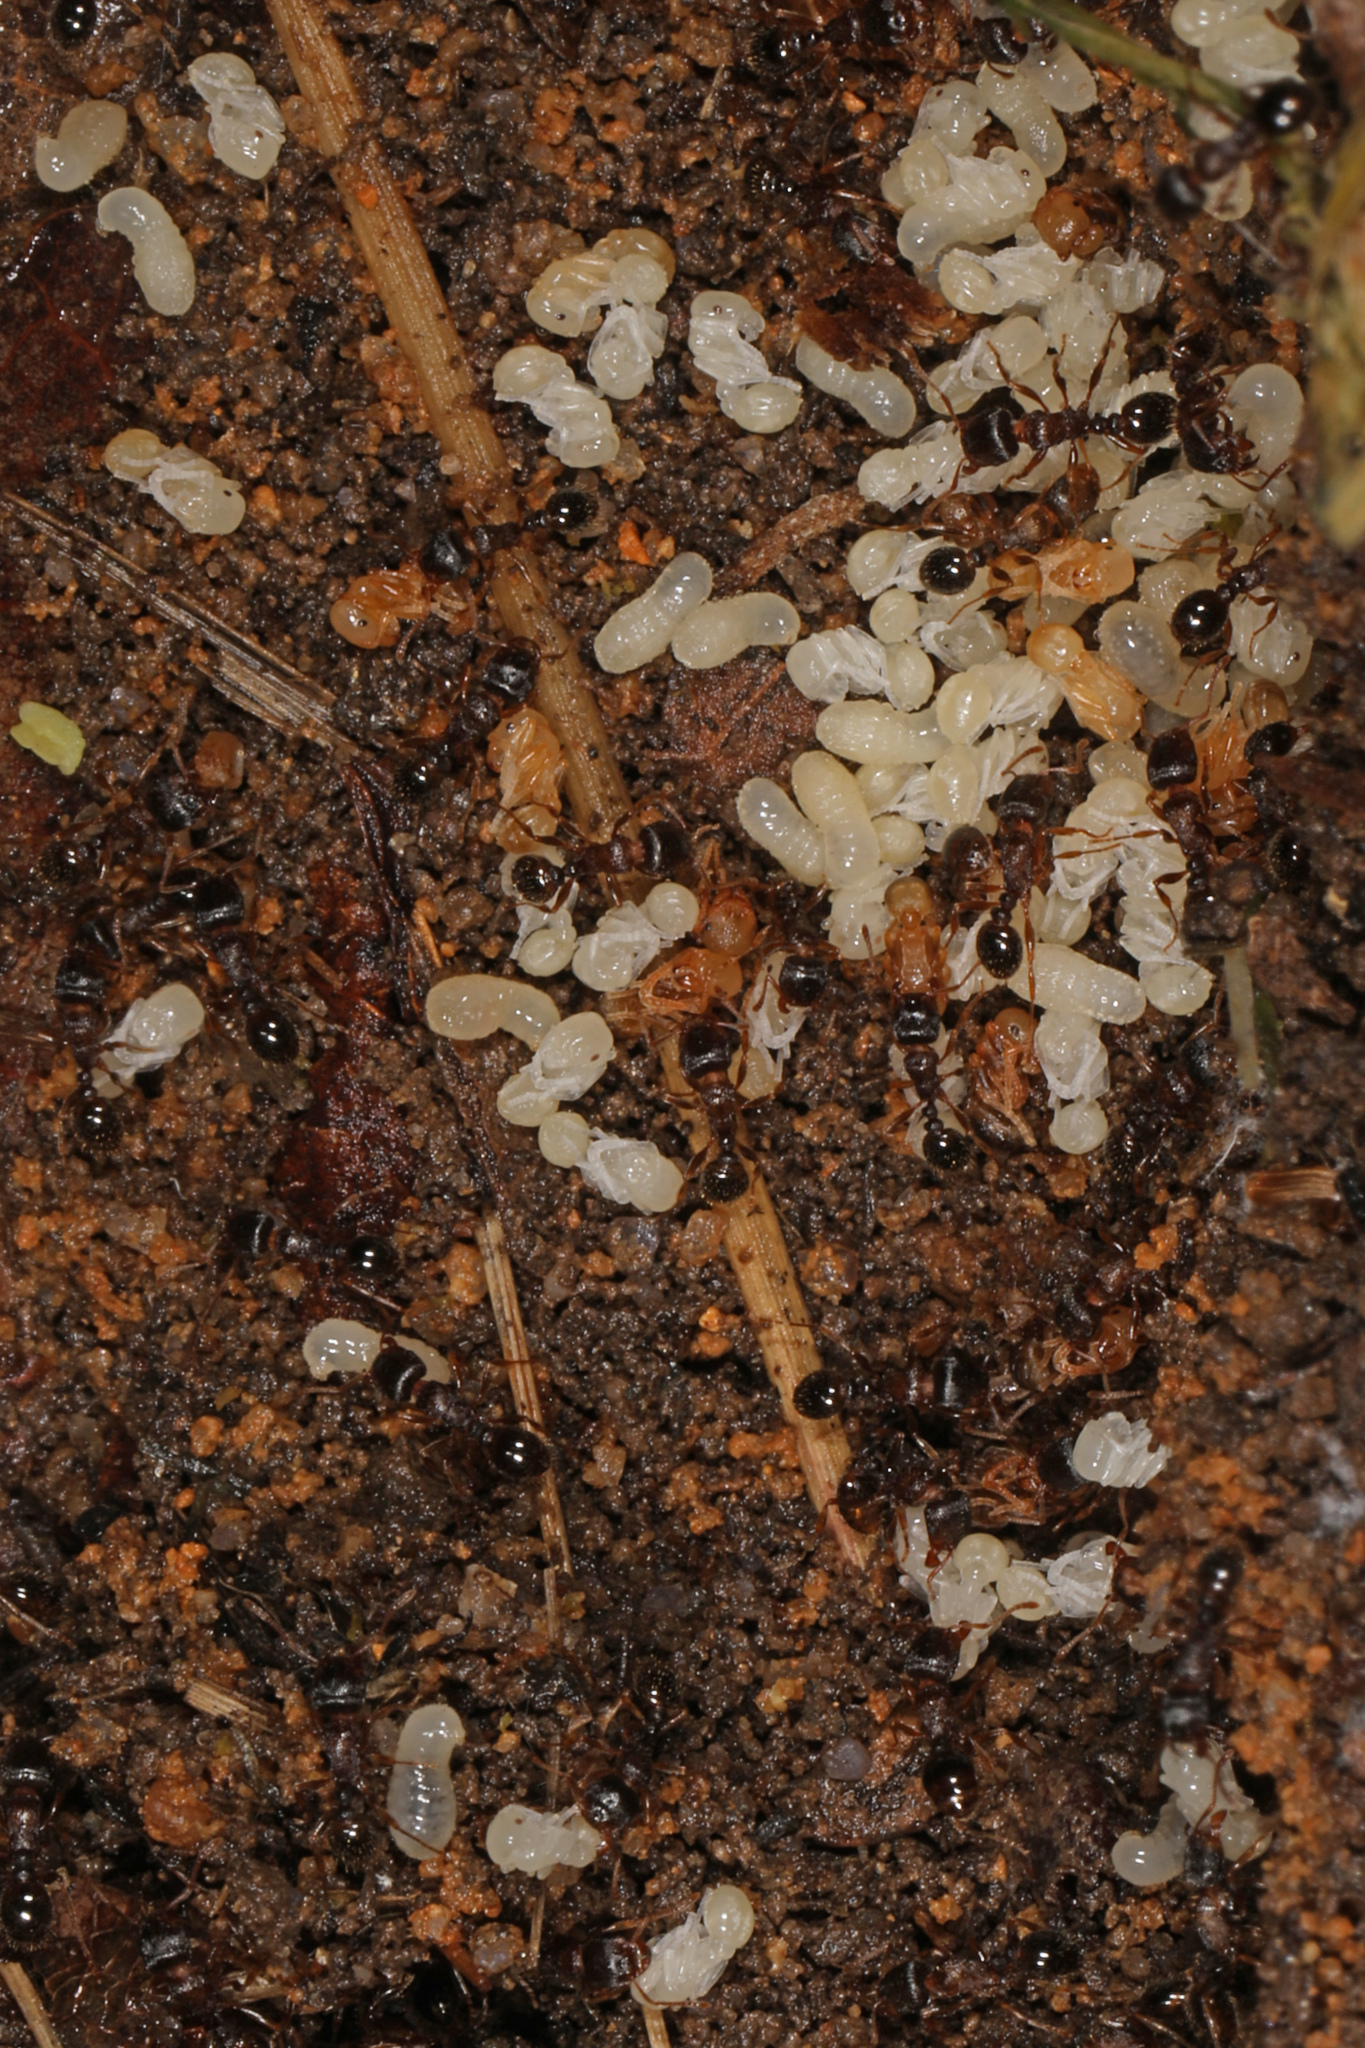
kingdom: Animalia
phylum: Arthropoda
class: Insecta
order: Hymenoptera
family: Formicidae
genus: Tetramorium
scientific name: Tetramorium immigrans
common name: Pavement ant
